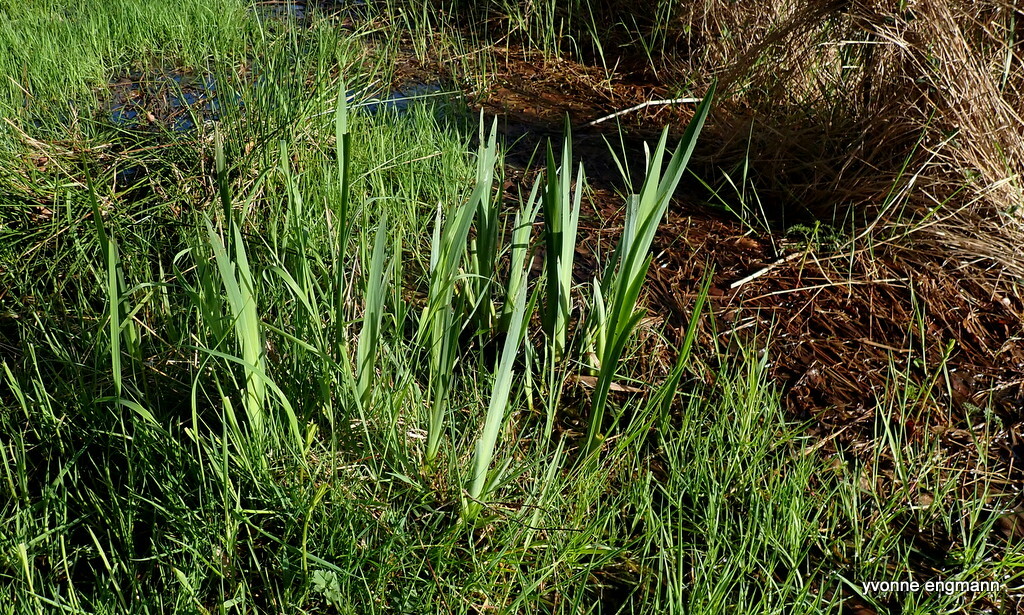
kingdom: Plantae
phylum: Tracheophyta
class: Liliopsida
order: Asparagales
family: Iridaceae
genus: Iris
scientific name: Iris pseudacorus
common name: Yellow flag
